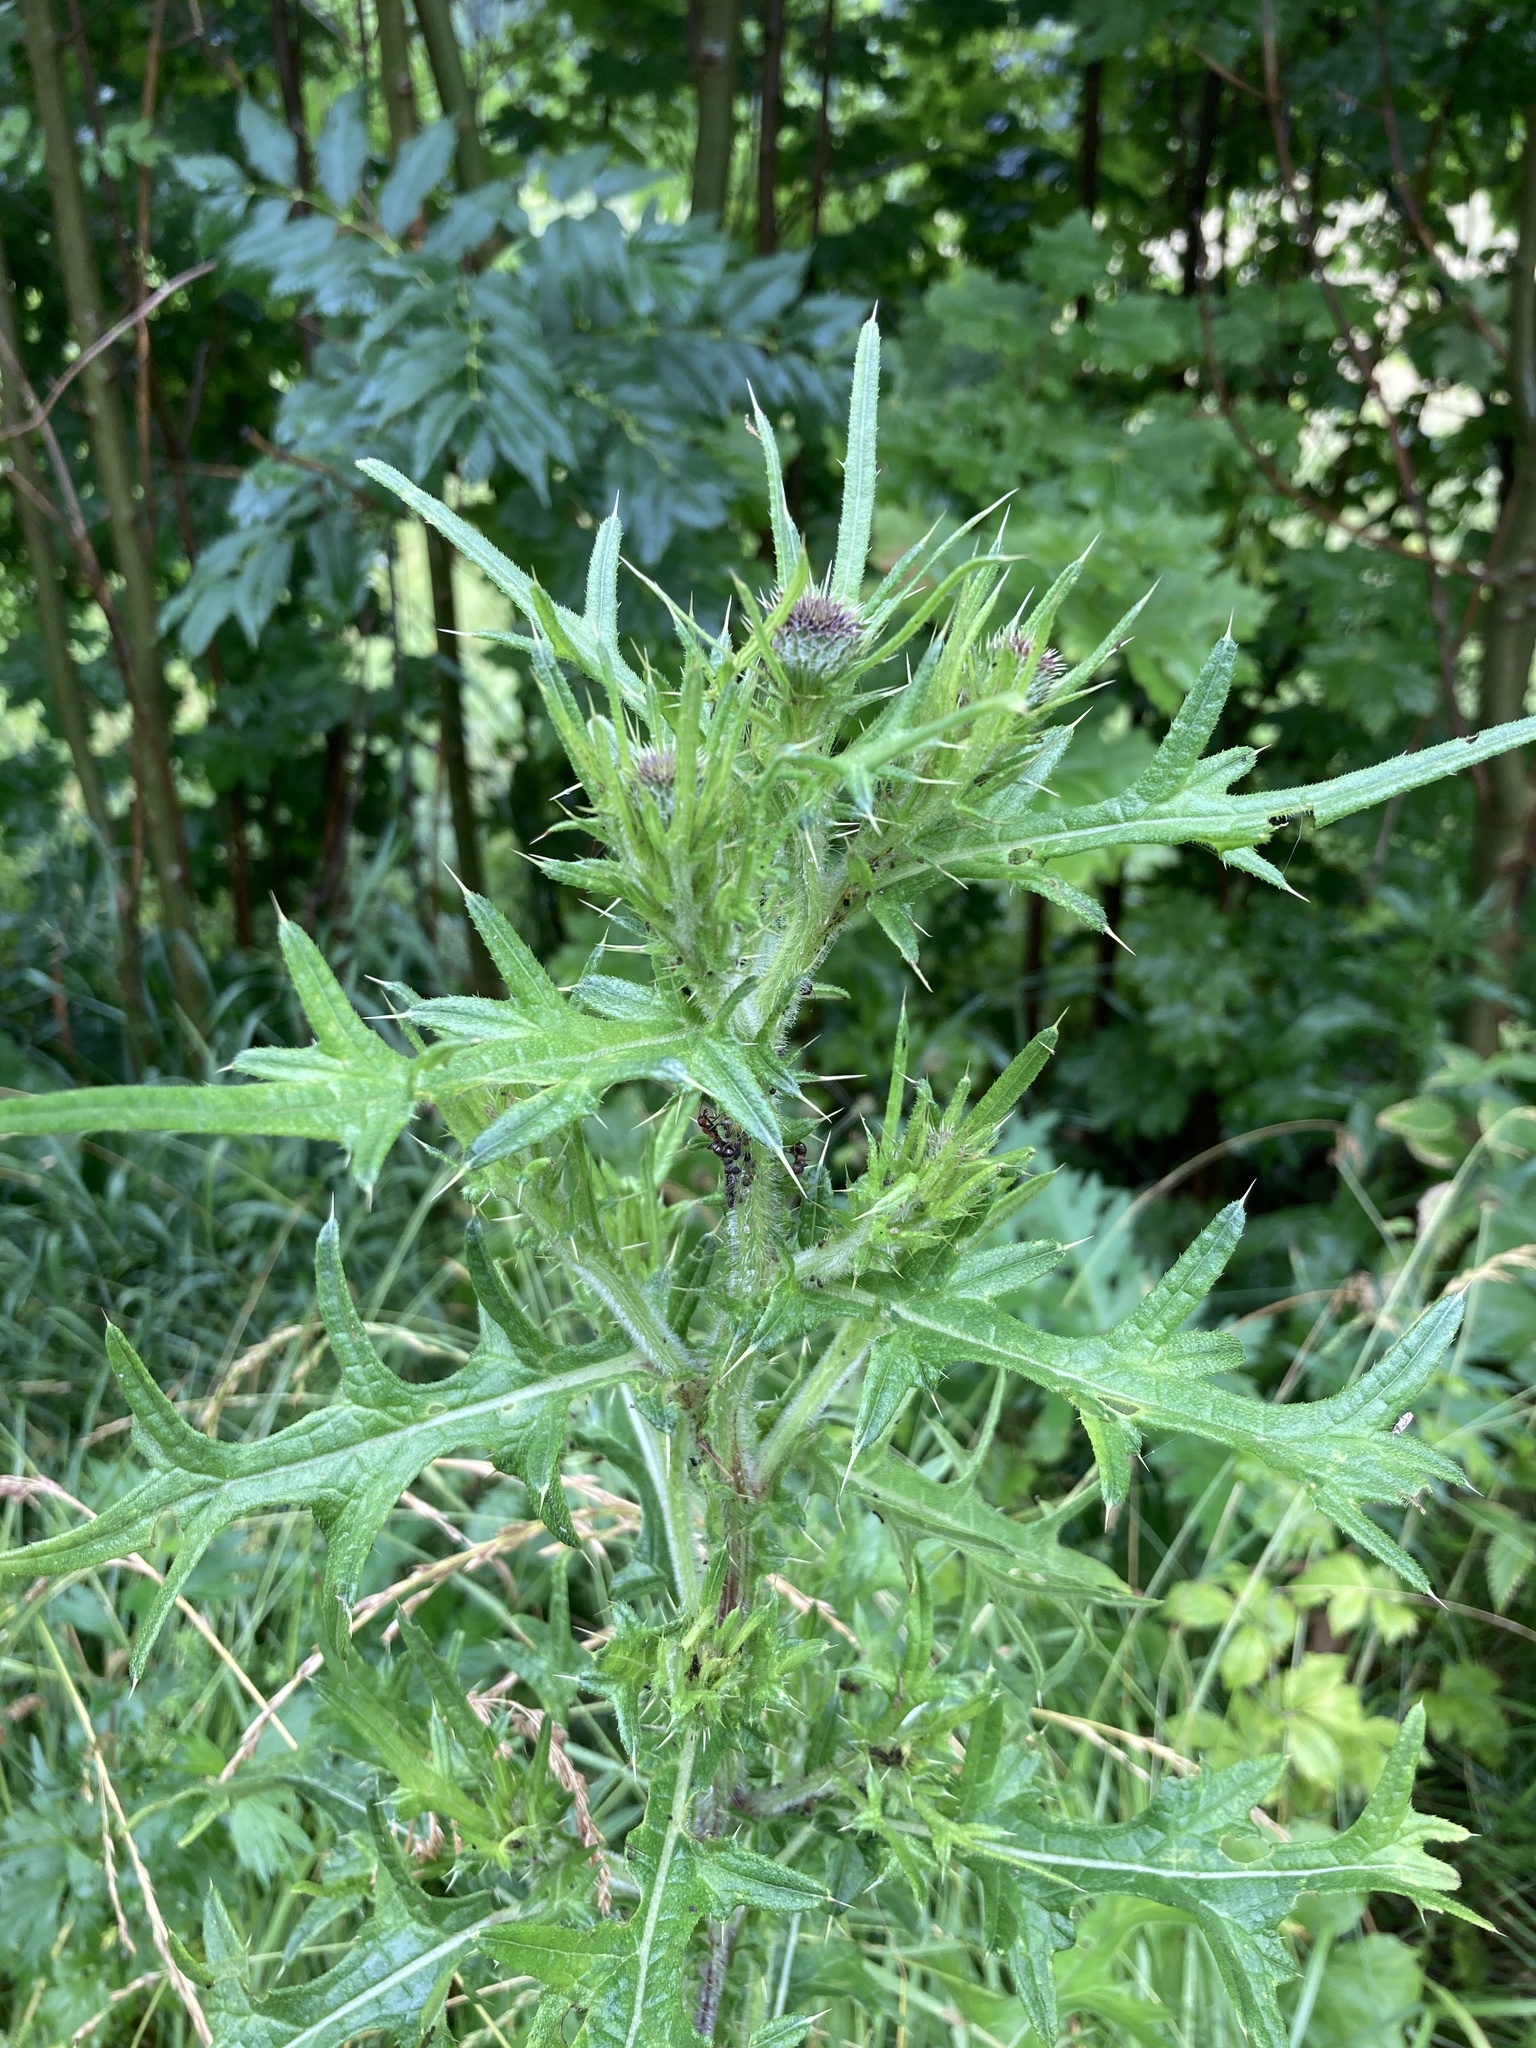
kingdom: Plantae
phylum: Tracheophyta
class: Magnoliopsida
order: Asterales
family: Asteraceae
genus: Cirsium
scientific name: Cirsium vulgare
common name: Bull thistle
